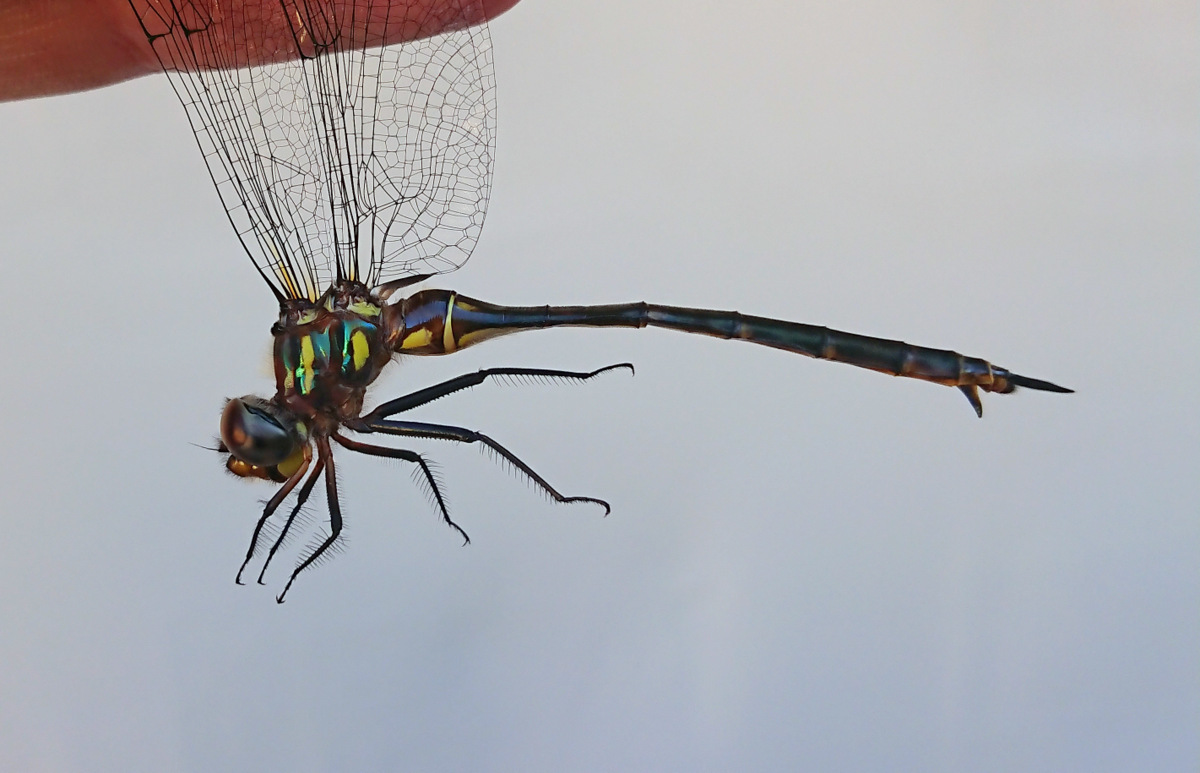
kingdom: Animalia
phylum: Arthropoda
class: Insecta
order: Odonata
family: Corduliidae
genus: Somatochlora
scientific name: Somatochlora tenebrosa
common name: Clamp-tipped emerald
